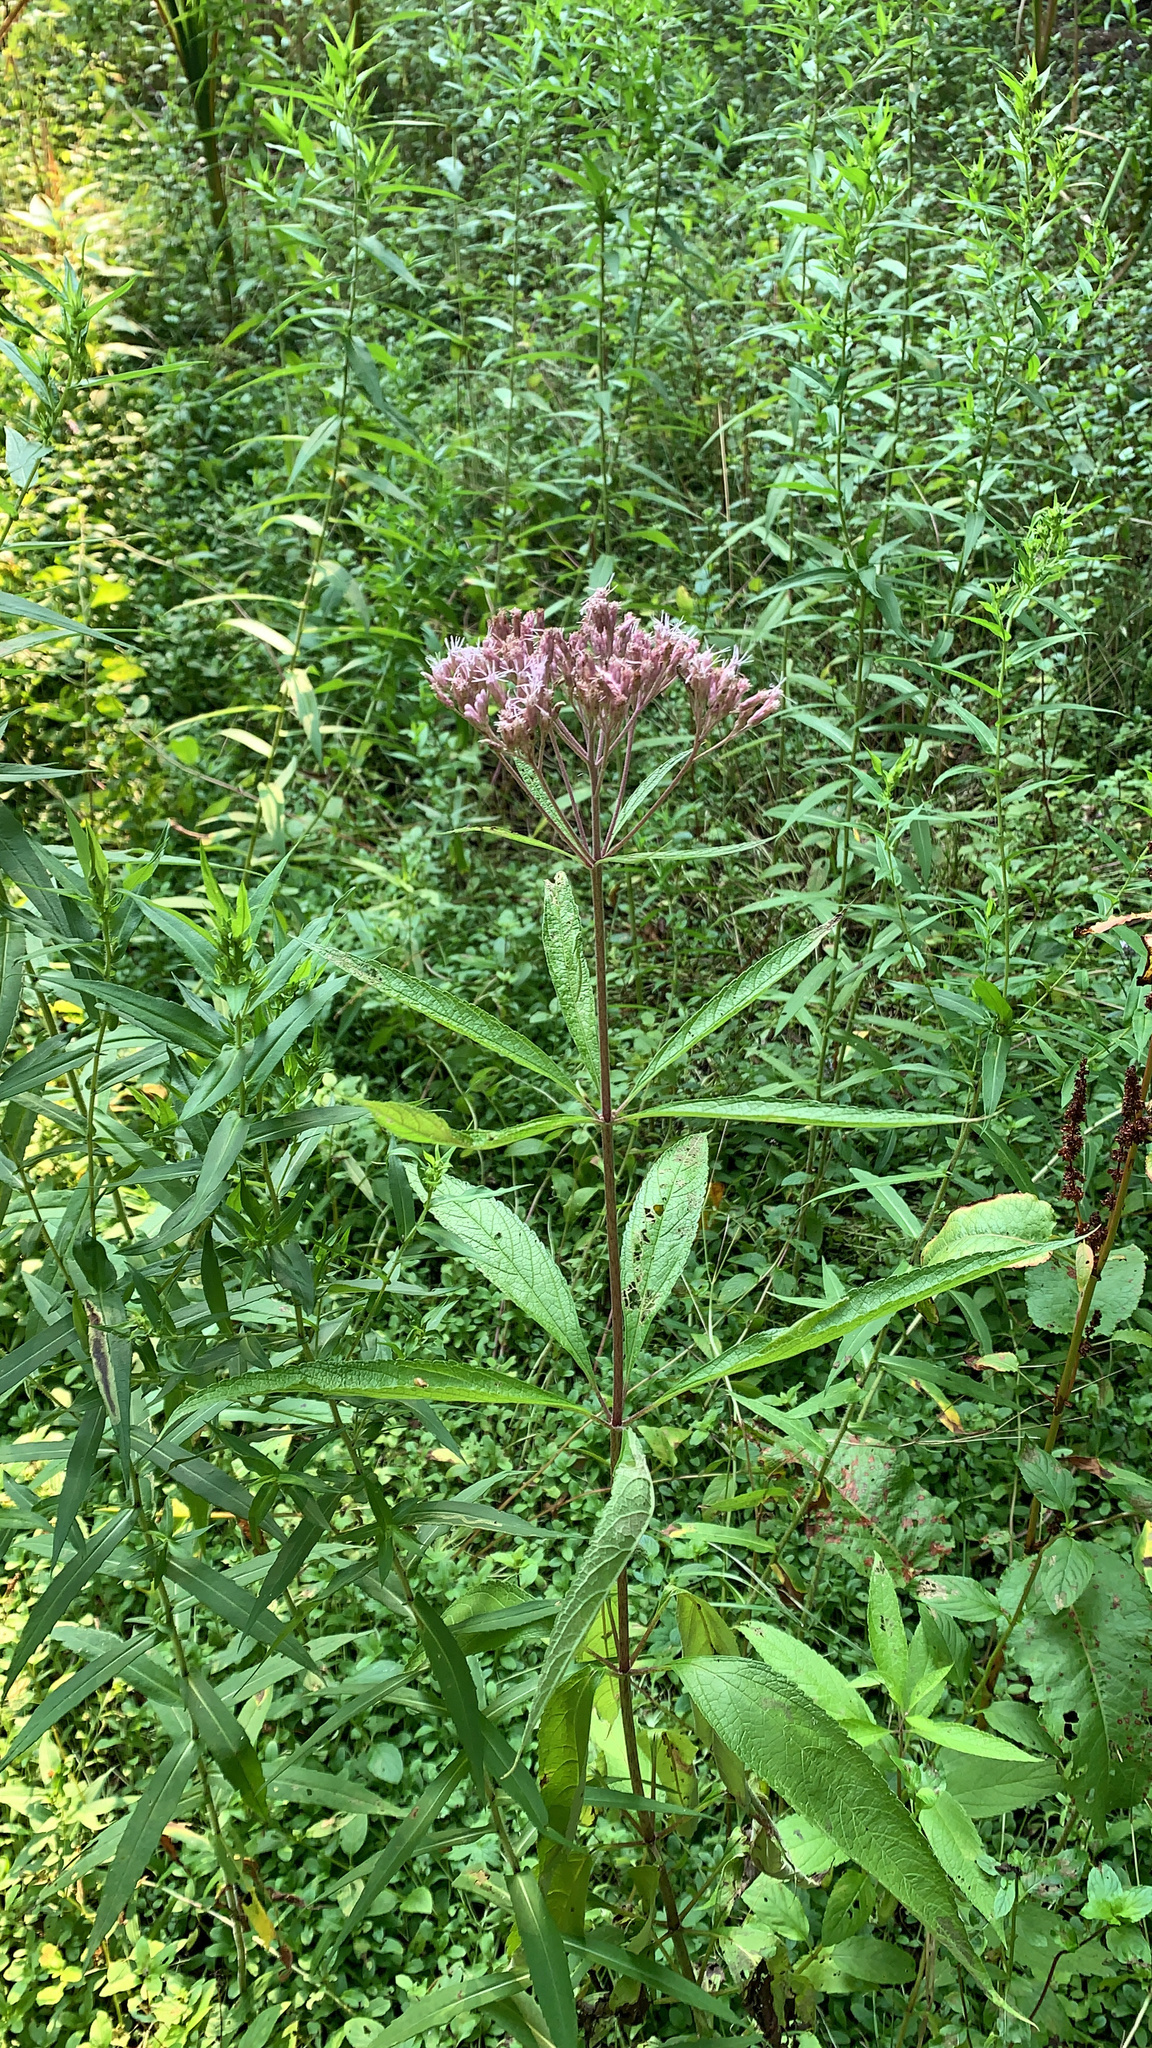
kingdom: Plantae
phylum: Tracheophyta
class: Magnoliopsida
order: Asterales
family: Asteraceae
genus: Eutrochium
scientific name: Eutrochium maculatum
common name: Spotted joe pye weed
